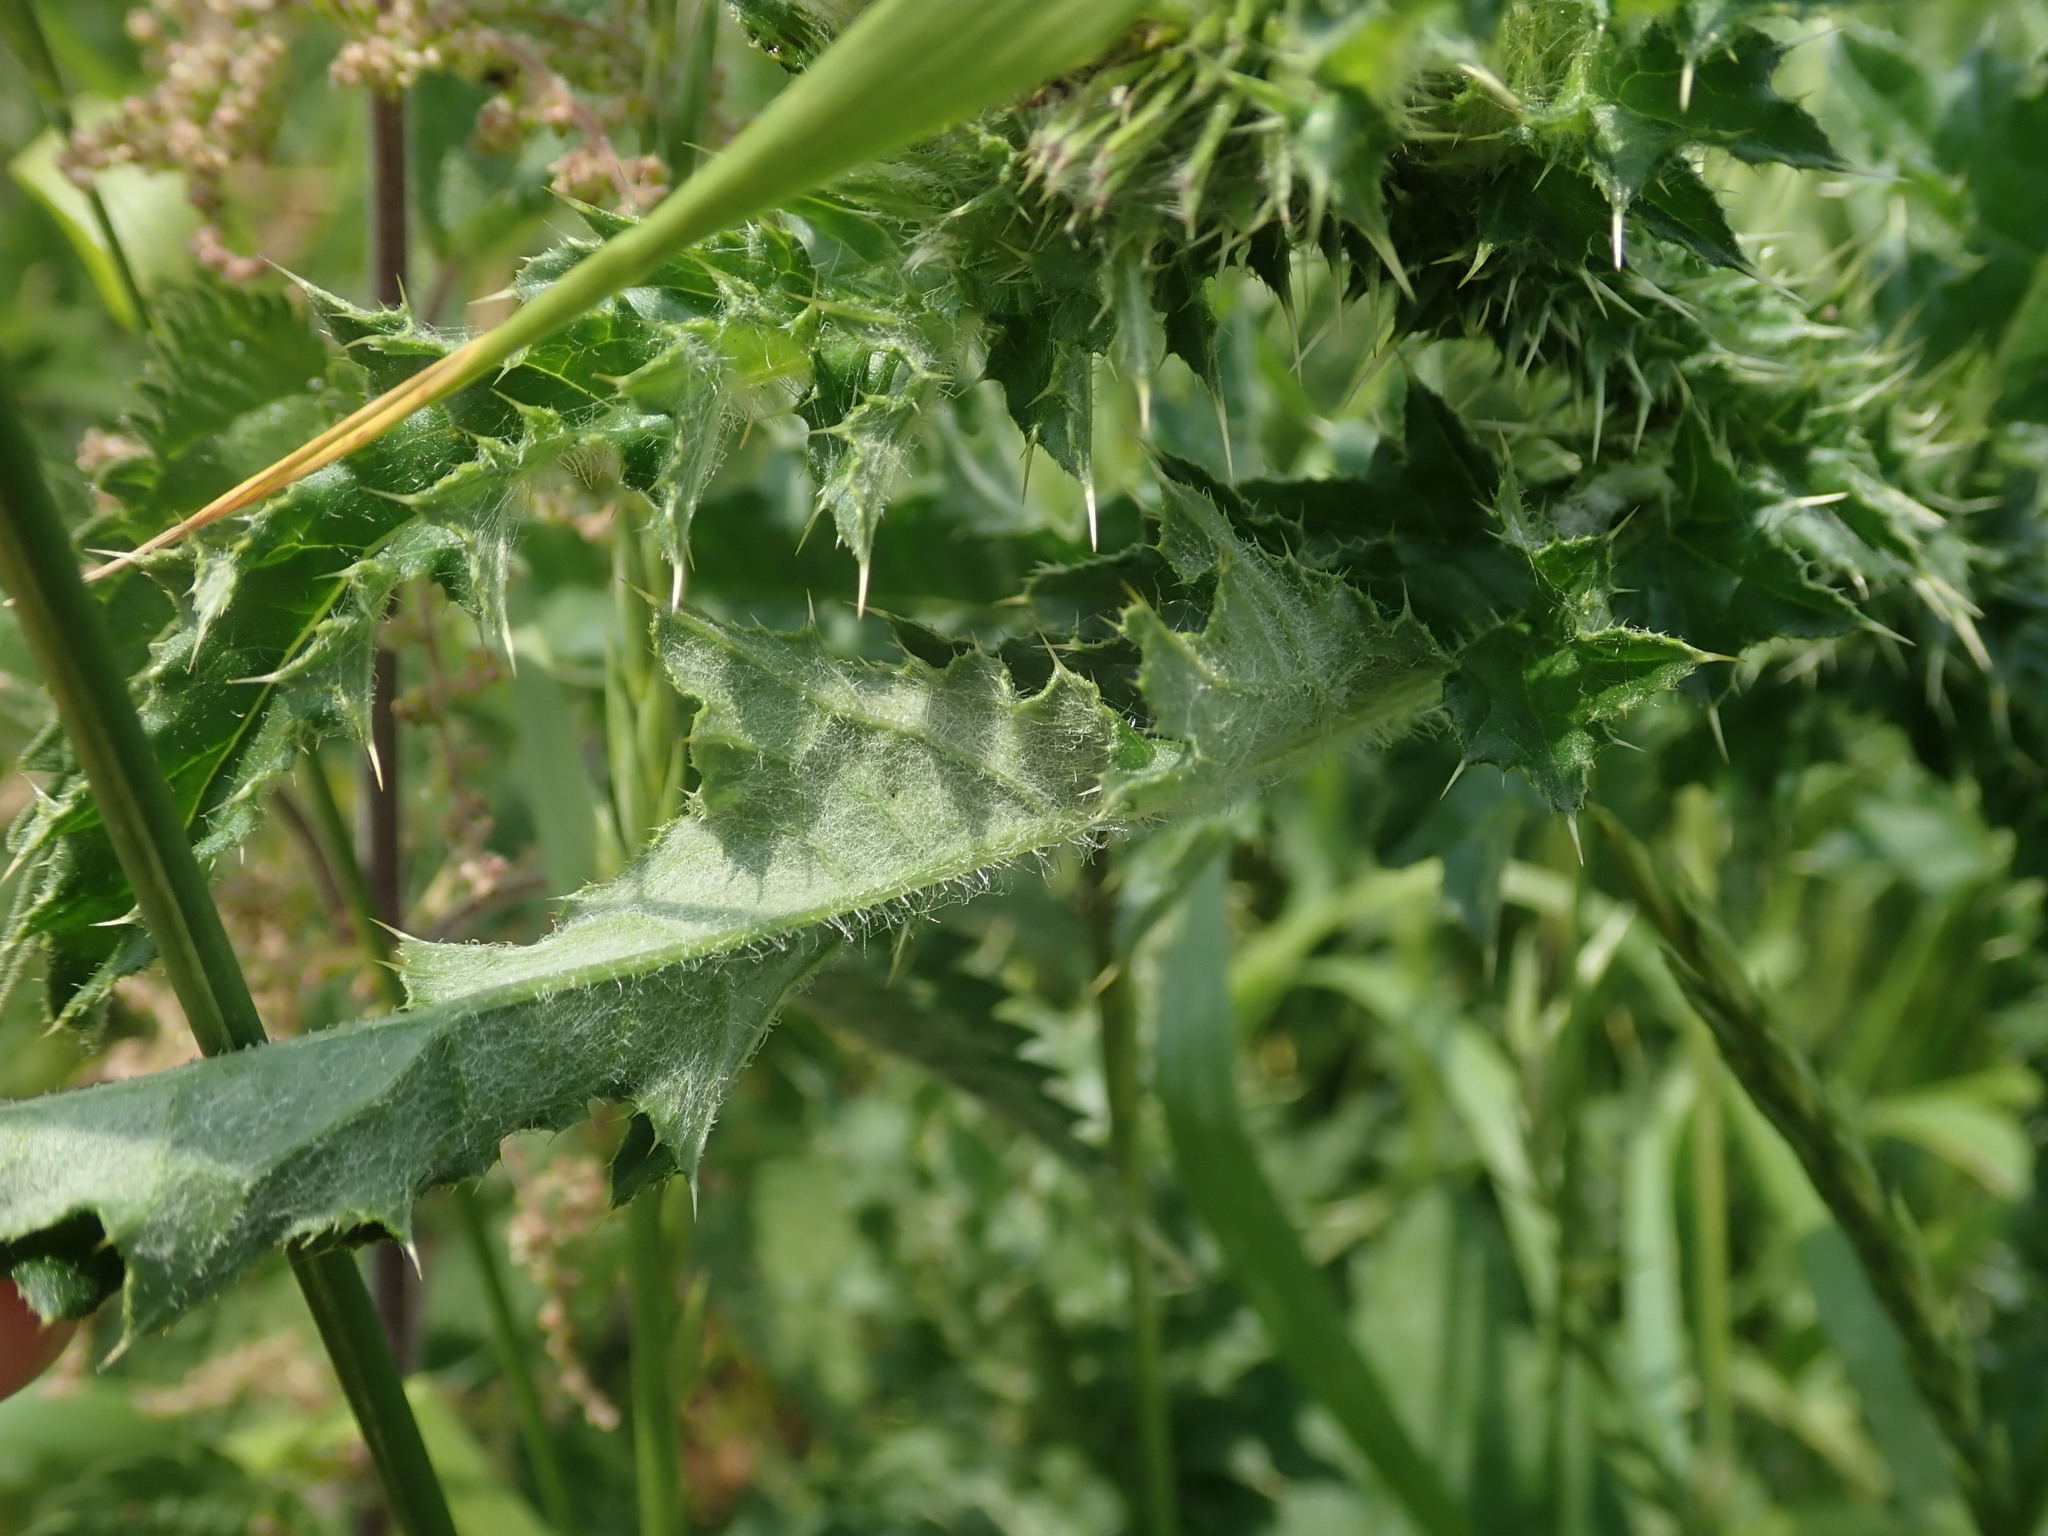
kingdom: Plantae
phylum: Tracheophyta
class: Magnoliopsida
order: Asterales
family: Asteraceae
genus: Carduus
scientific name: Carduus crispus
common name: Welted thistle
